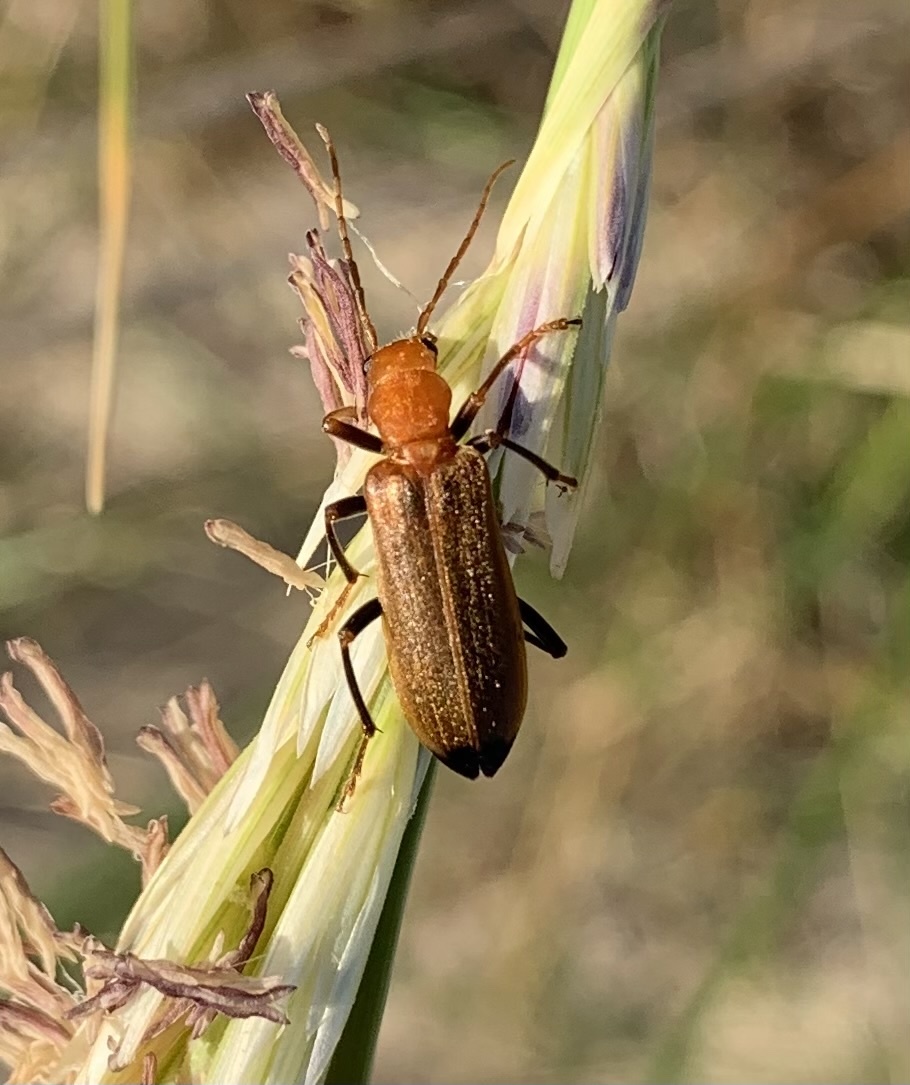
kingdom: Animalia
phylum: Arthropoda
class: Insecta
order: Coleoptera
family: Oedemeridae
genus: Nacerdes
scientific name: Nacerdes melanura
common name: Wharf borer
